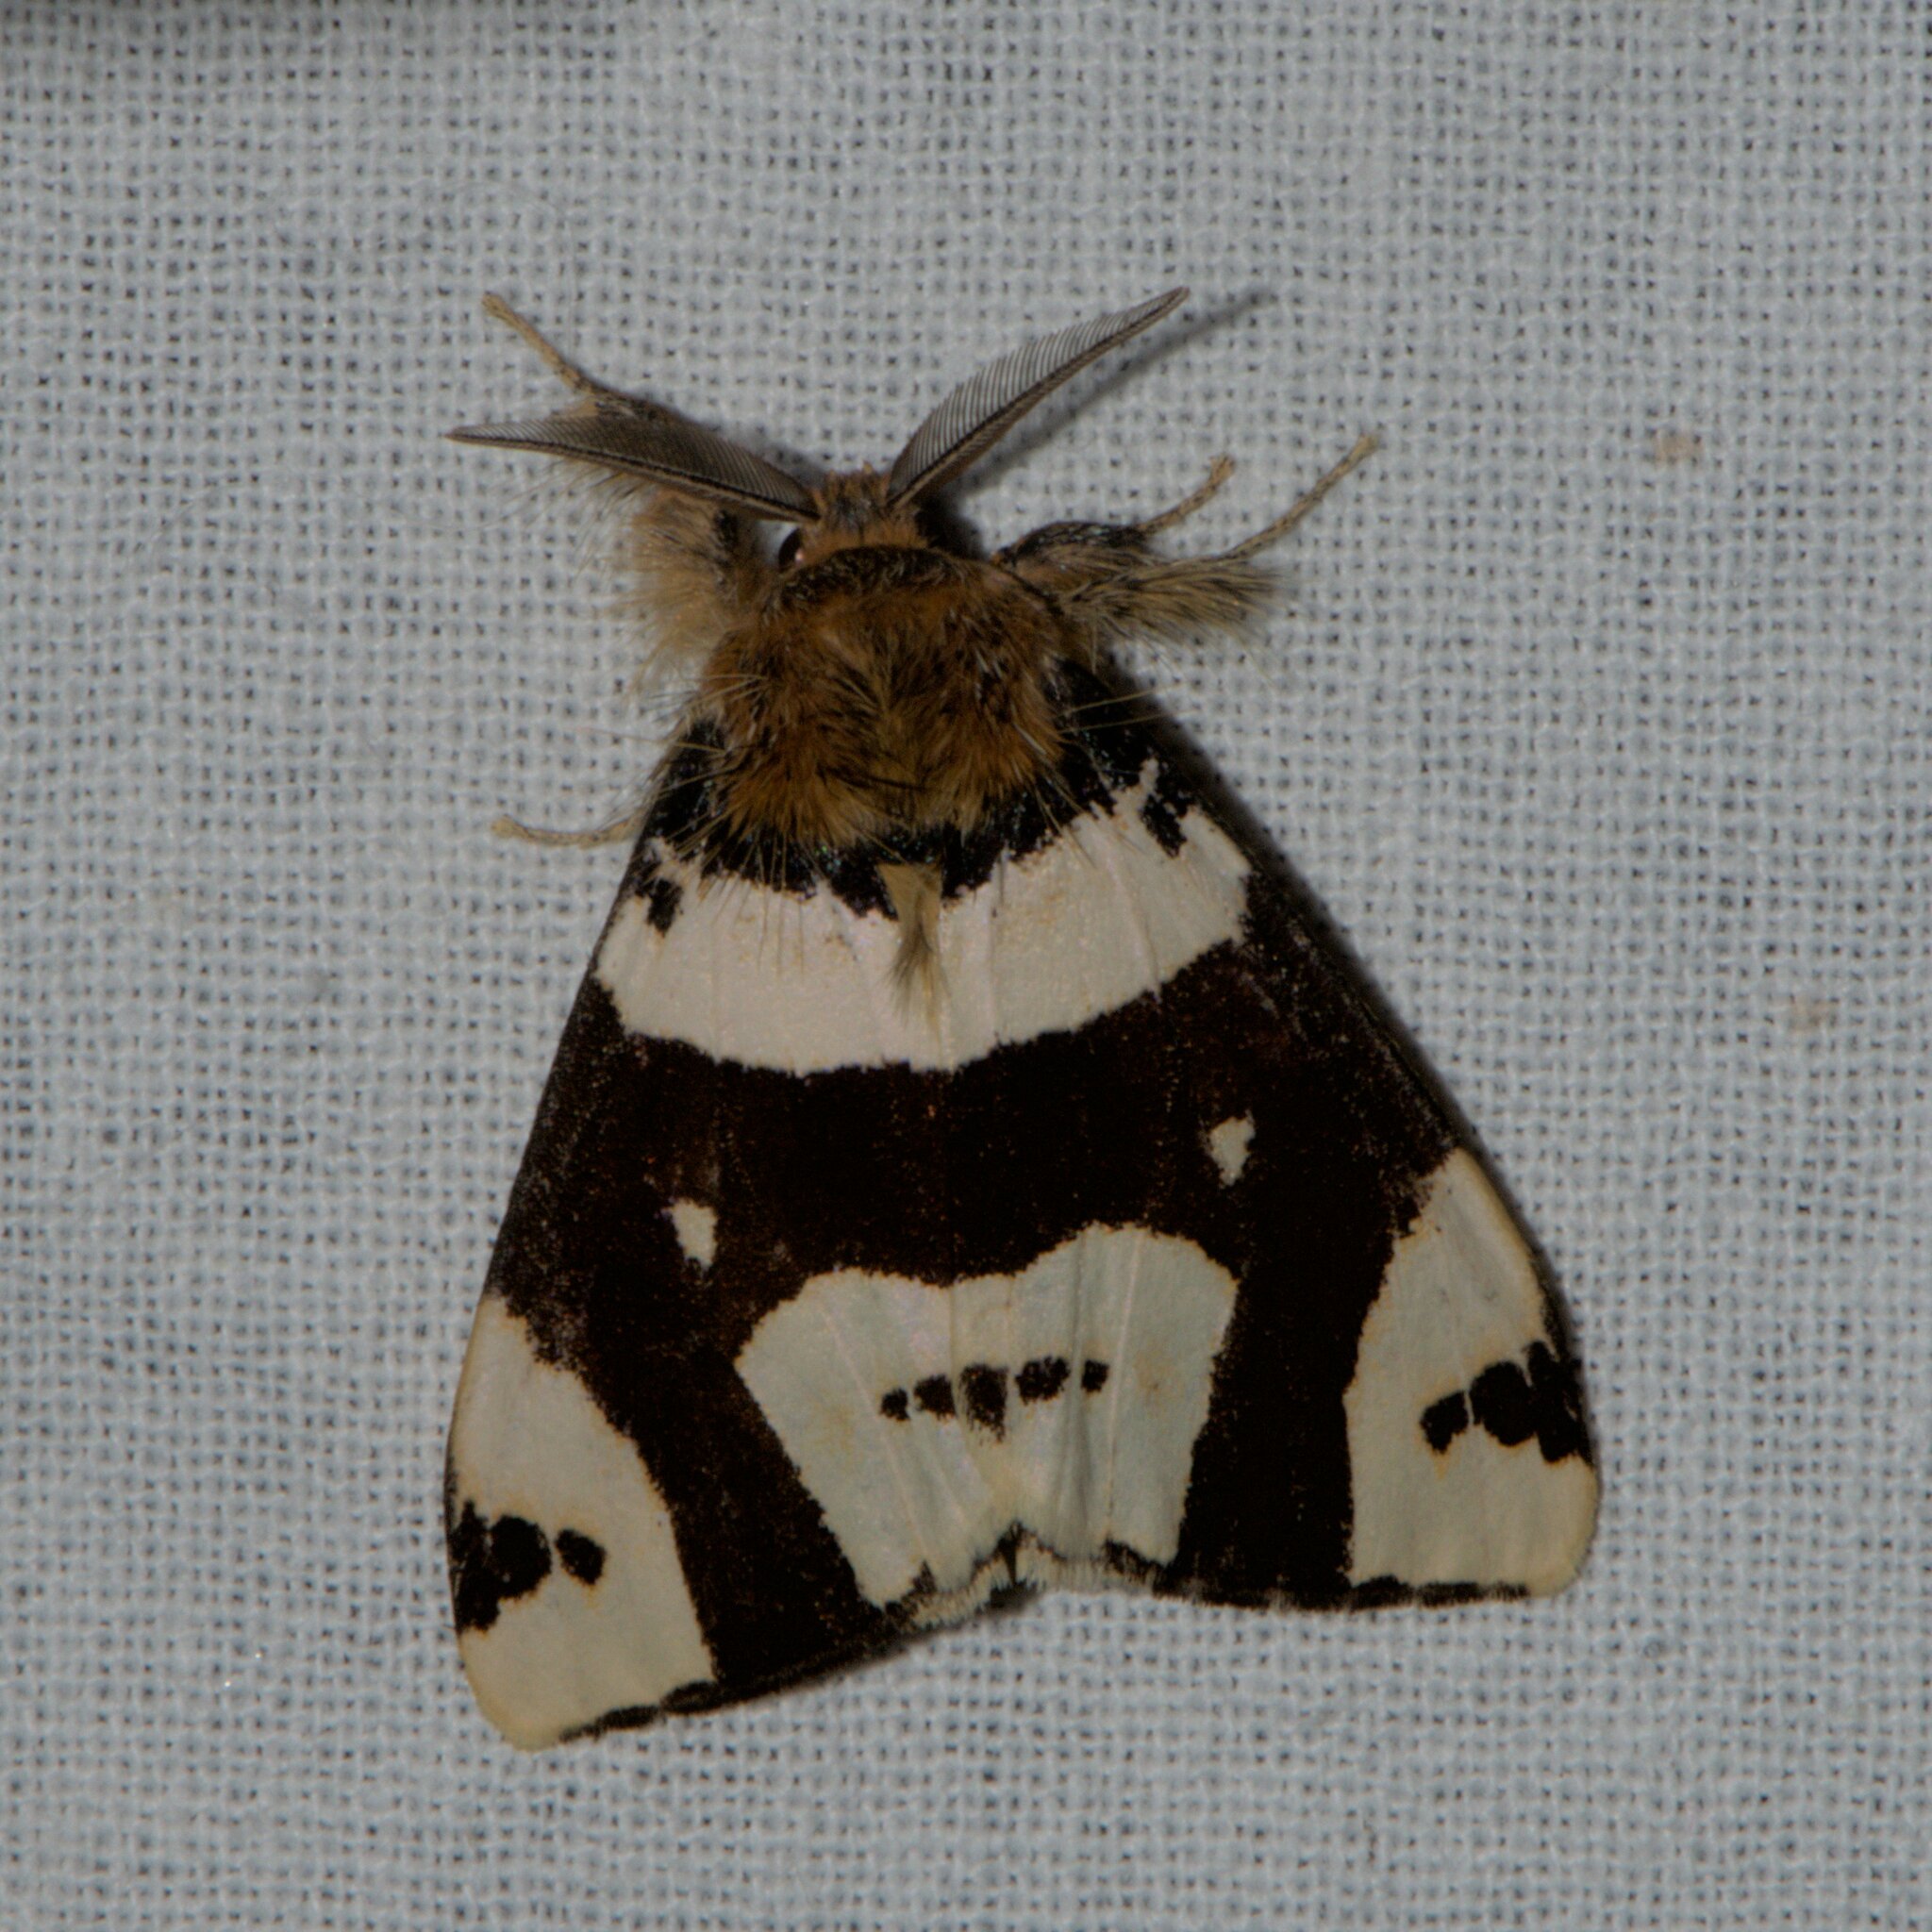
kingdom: Animalia
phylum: Arthropoda
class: Insecta
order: Lepidoptera
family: Erebidae
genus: Pida
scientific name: Pida
